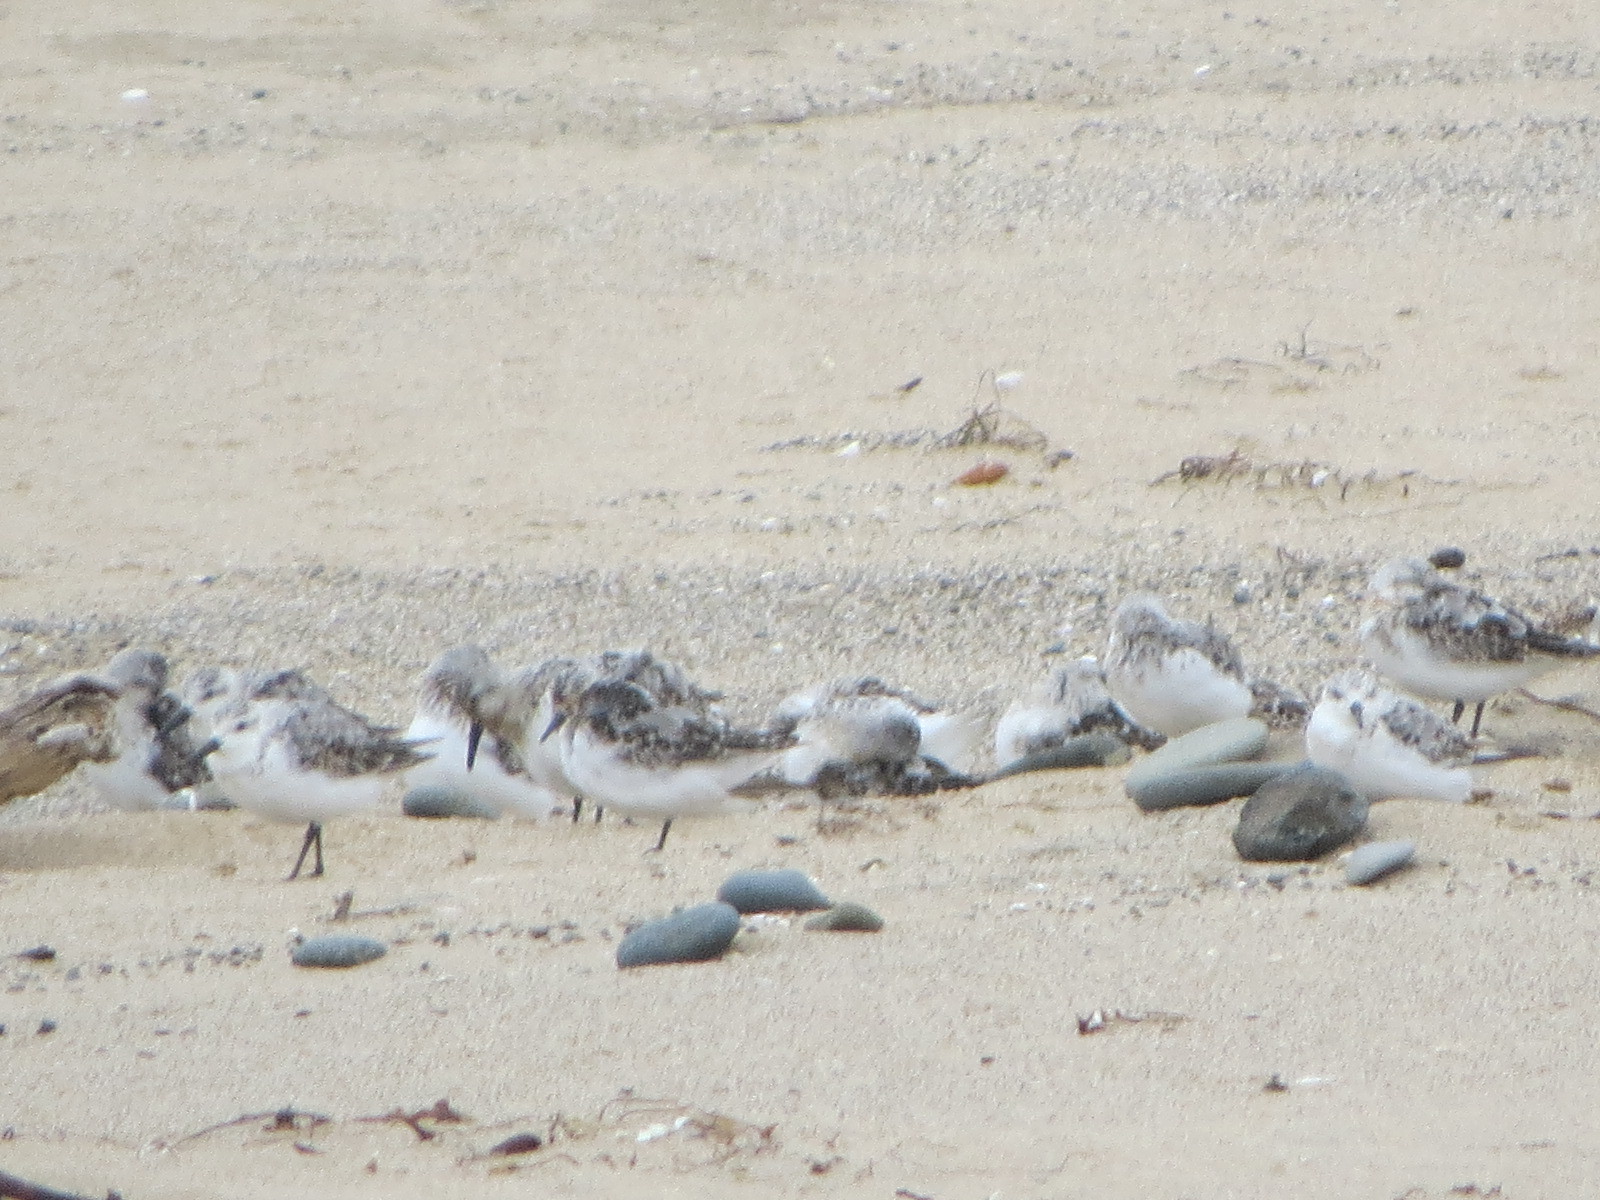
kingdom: Animalia
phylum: Chordata
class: Aves
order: Charadriiformes
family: Scolopacidae
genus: Calidris
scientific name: Calidris alba
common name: Sanderling
